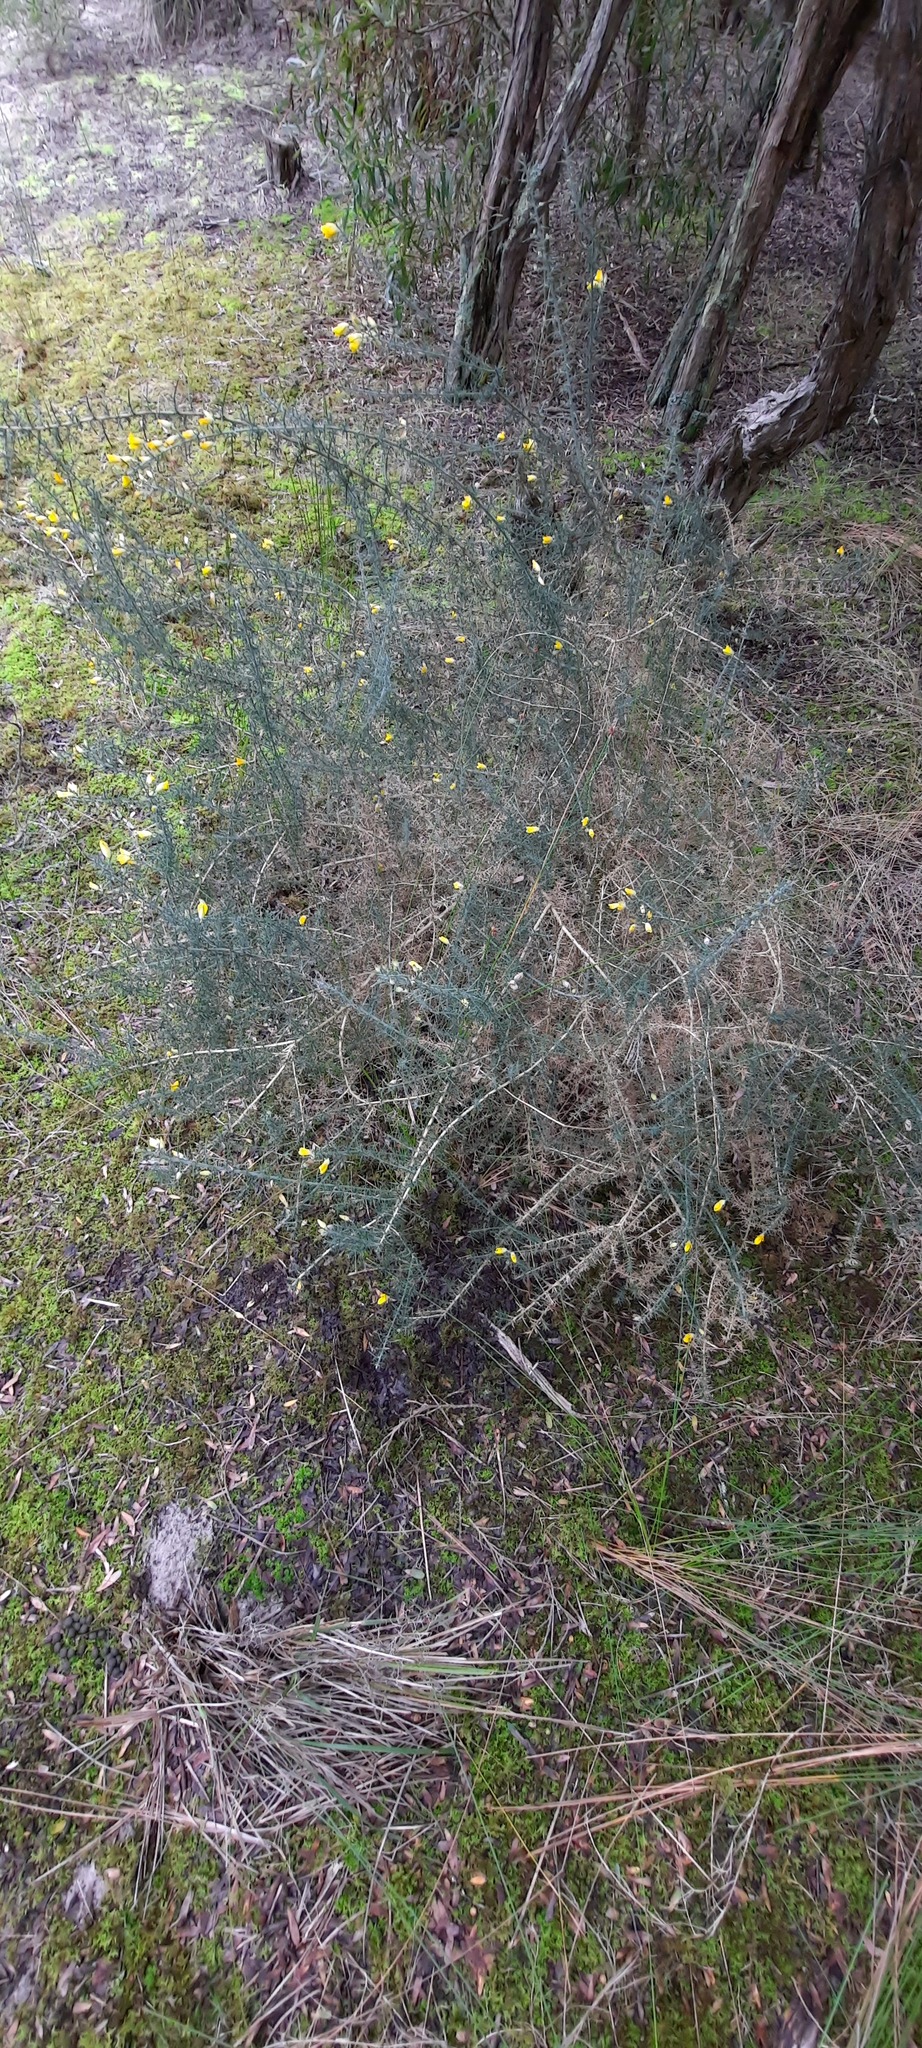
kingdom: Plantae
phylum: Tracheophyta
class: Magnoliopsida
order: Fabales
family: Fabaceae
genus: Ulex
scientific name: Ulex europaeus
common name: Common gorse
